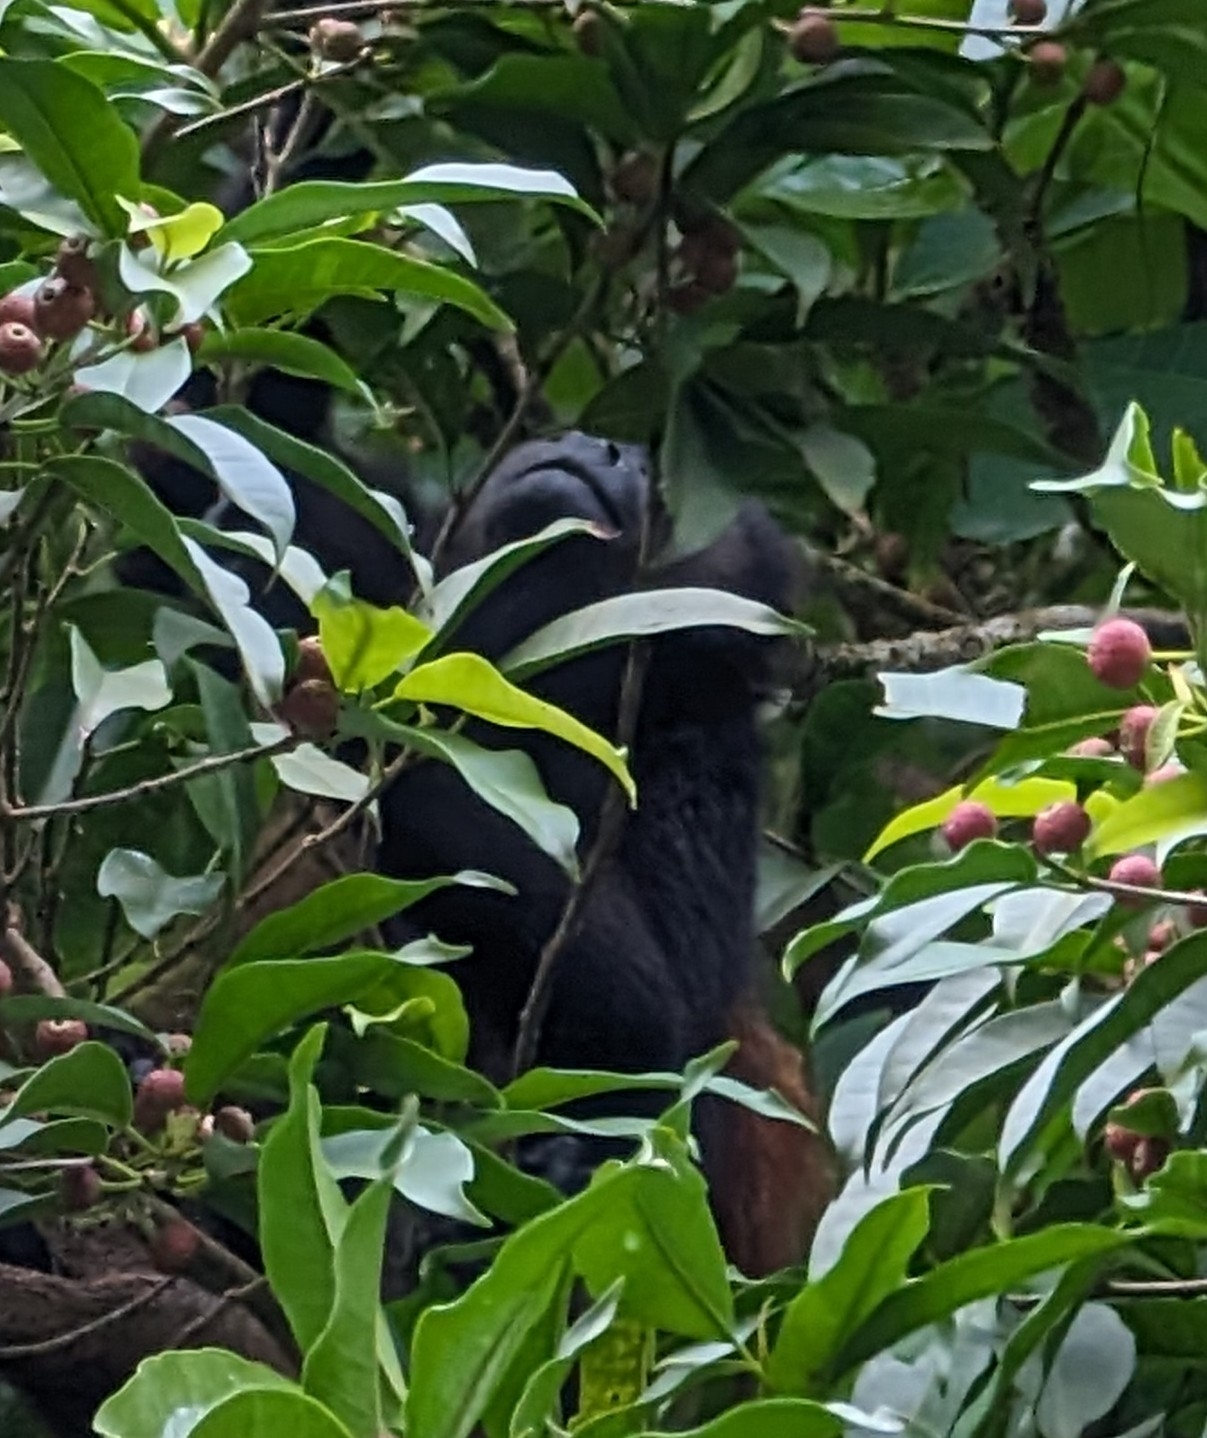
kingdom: Animalia
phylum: Chordata
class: Mammalia
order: Primates
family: Atelidae
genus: Alouatta
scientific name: Alouatta palliata
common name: Mantled howler
